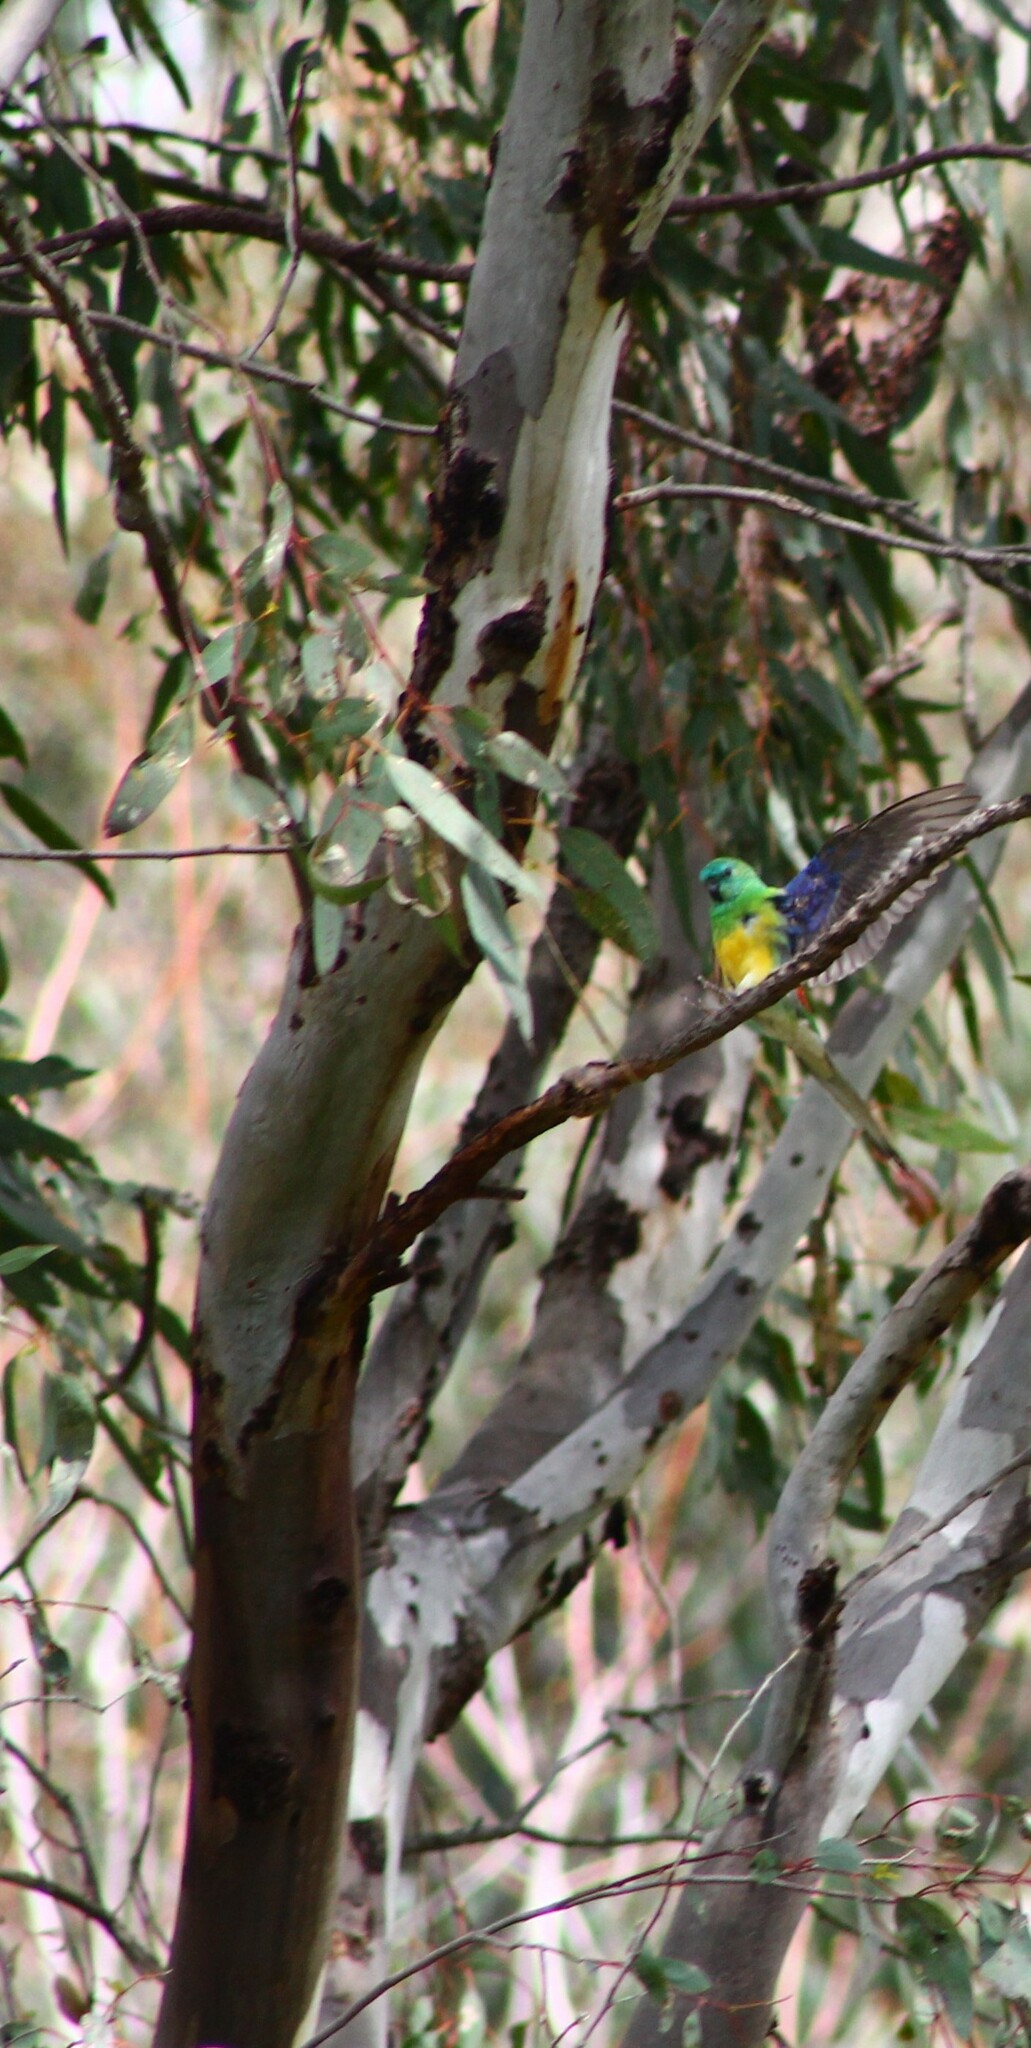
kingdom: Animalia
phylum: Chordata
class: Aves
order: Psittaciformes
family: Psittacidae
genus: Psephotus
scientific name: Psephotus haematonotus
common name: Red-rumped parrot
